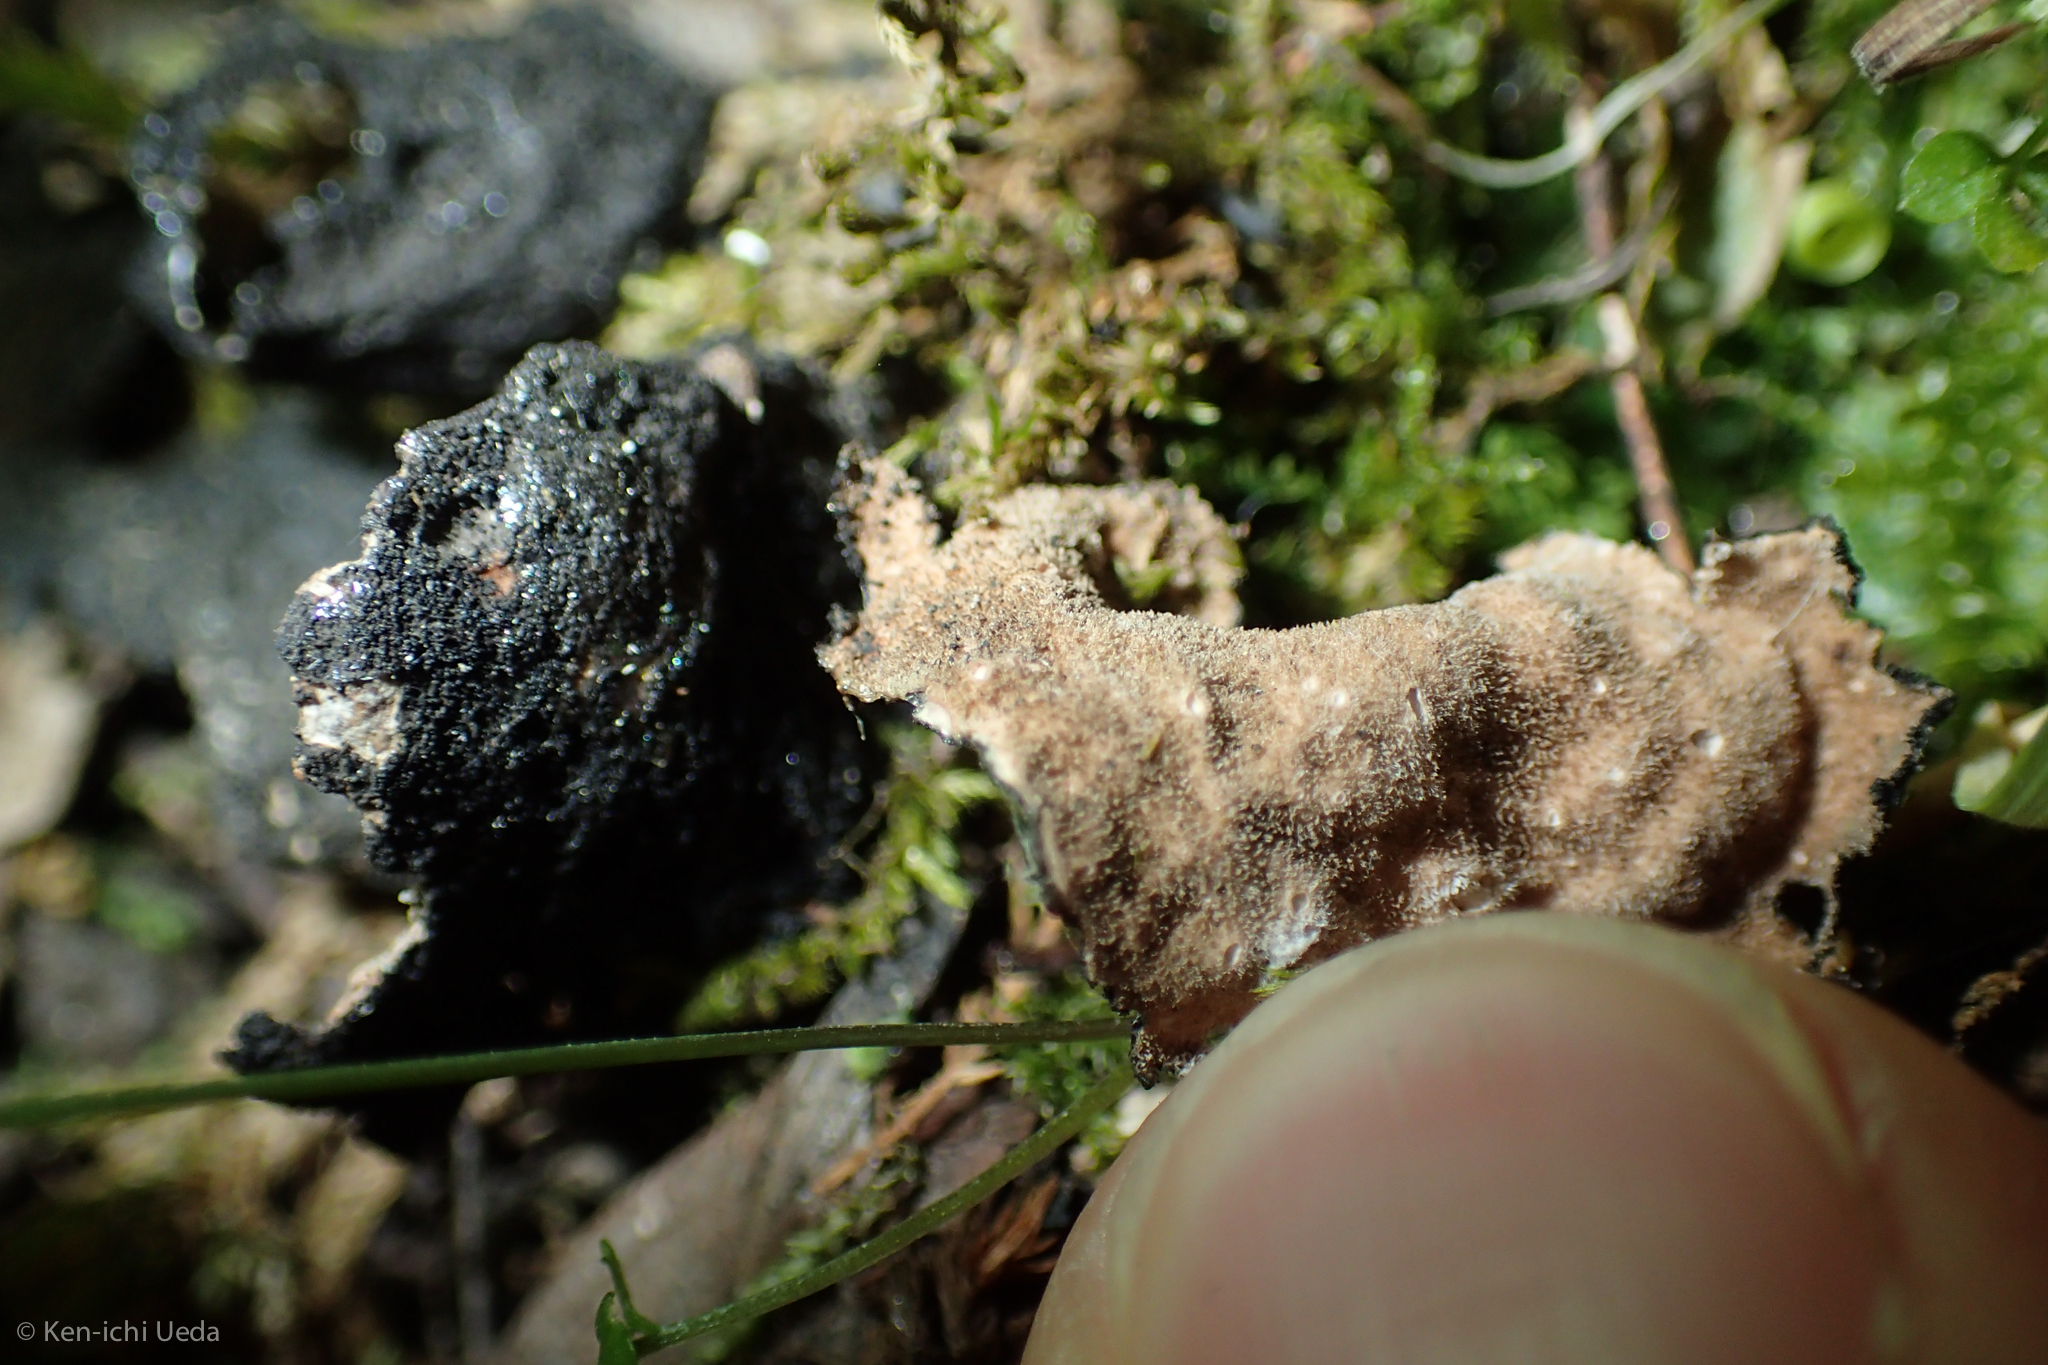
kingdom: Fungi
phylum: Ascomycota
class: Lecanoromycetes
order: Peltigerales
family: Lobariaceae
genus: Sticta
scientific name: Sticta fuliginosa
